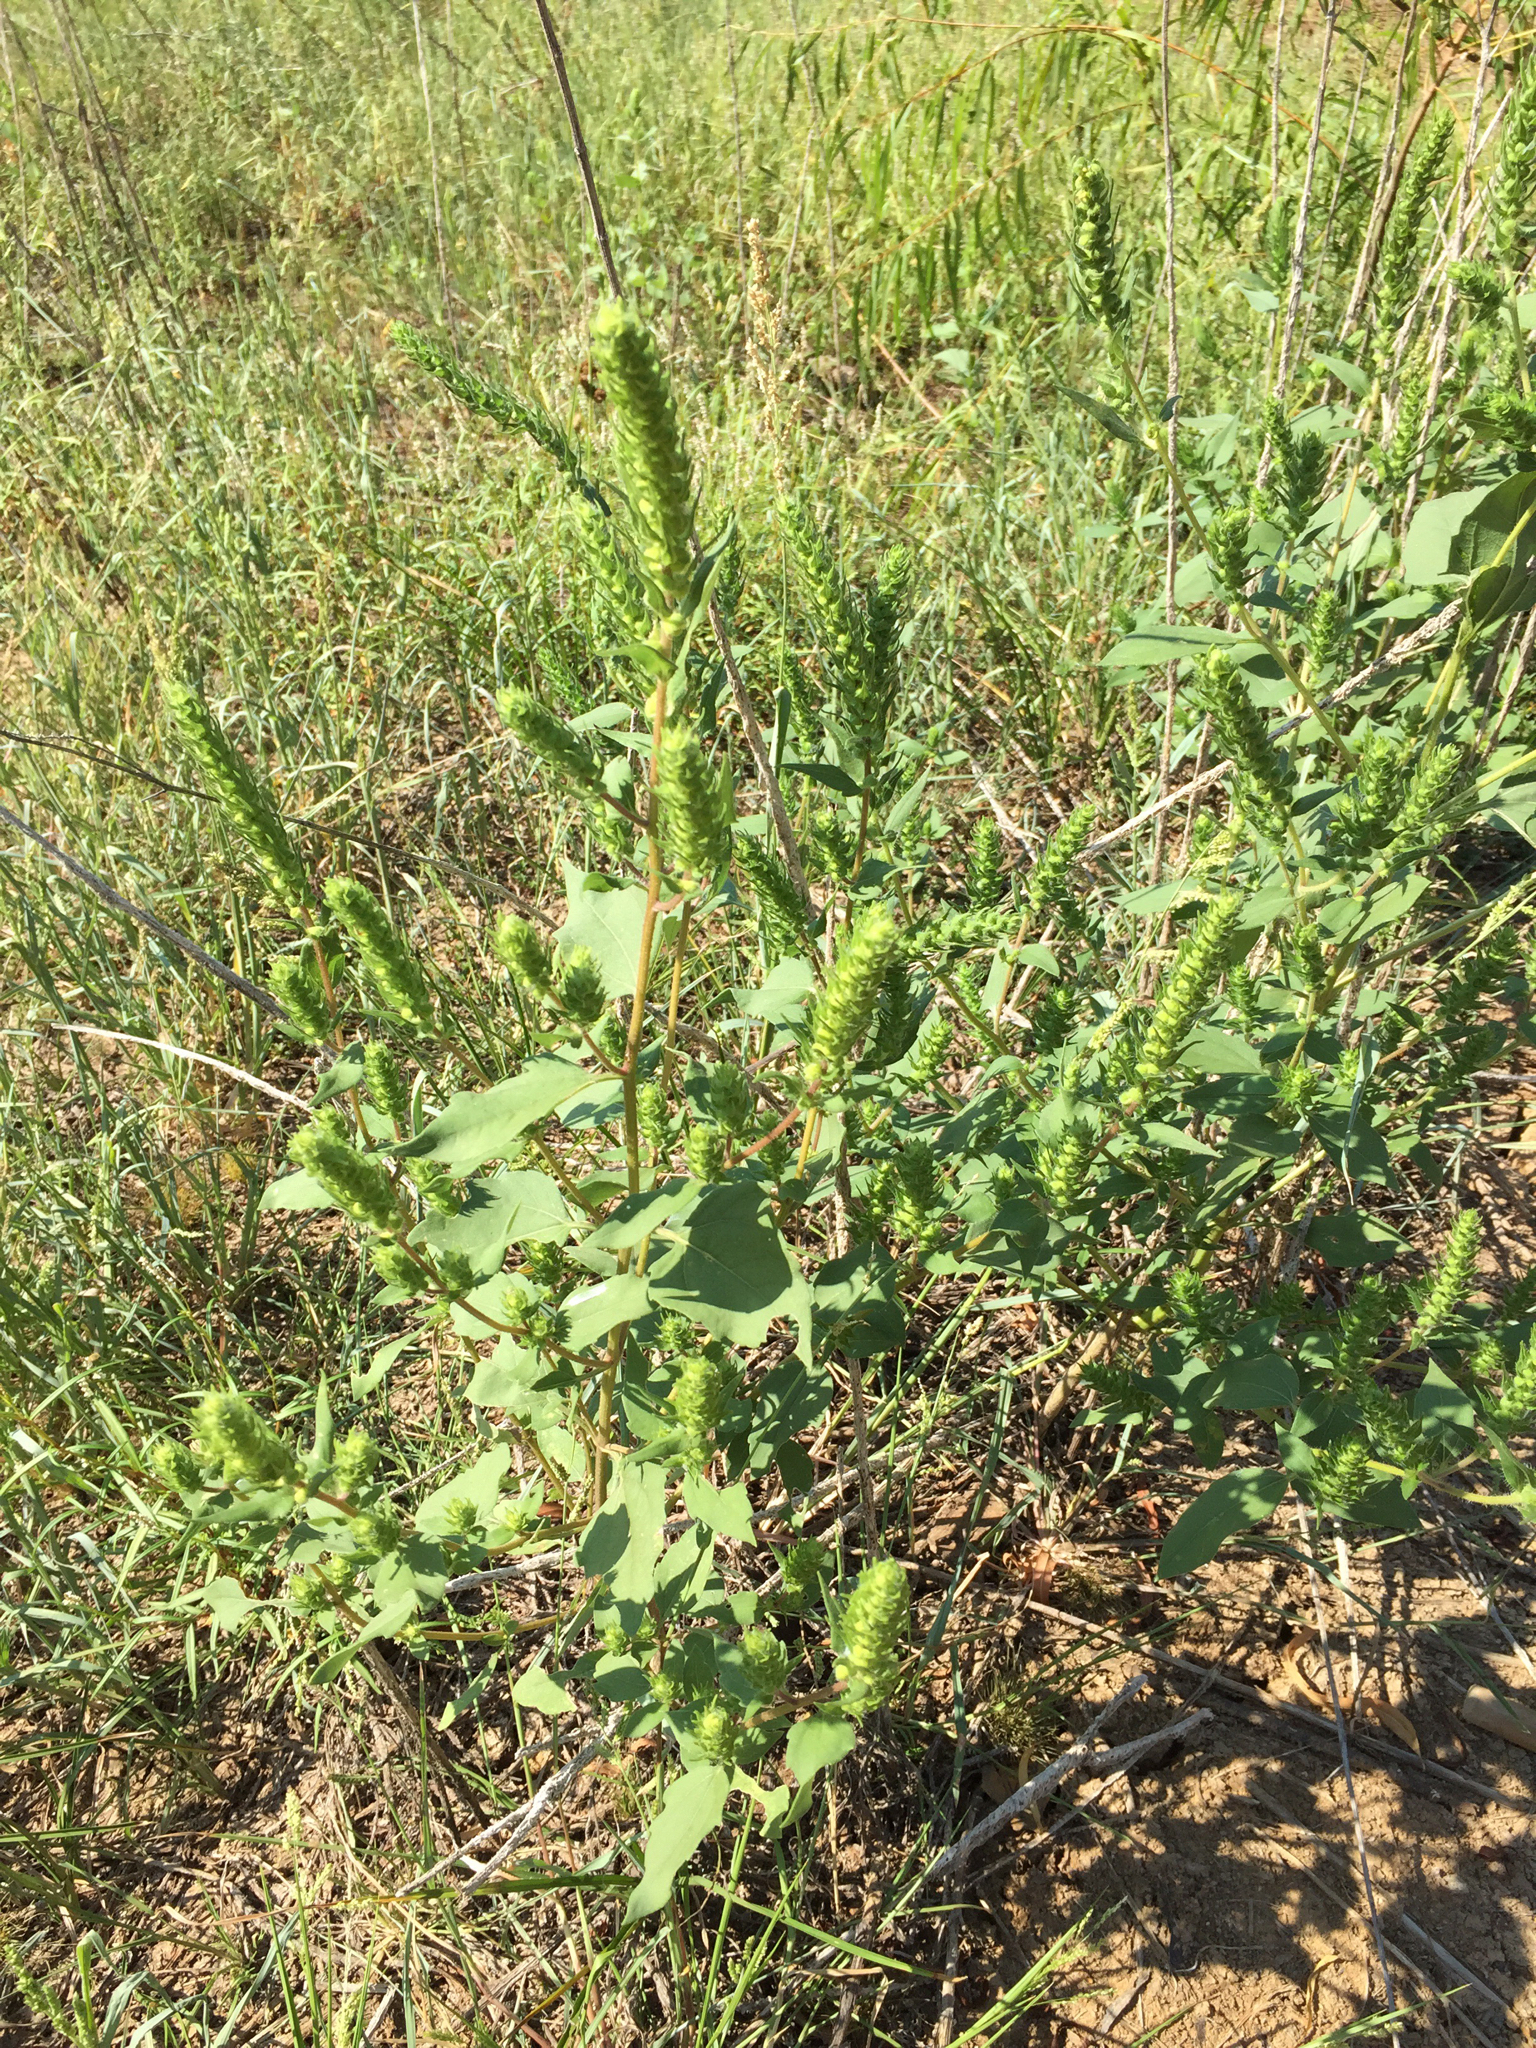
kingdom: Plantae
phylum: Tracheophyta
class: Magnoliopsida
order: Asterales
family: Asteraceae
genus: Iva
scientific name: Iva annua
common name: Marsh-elder
